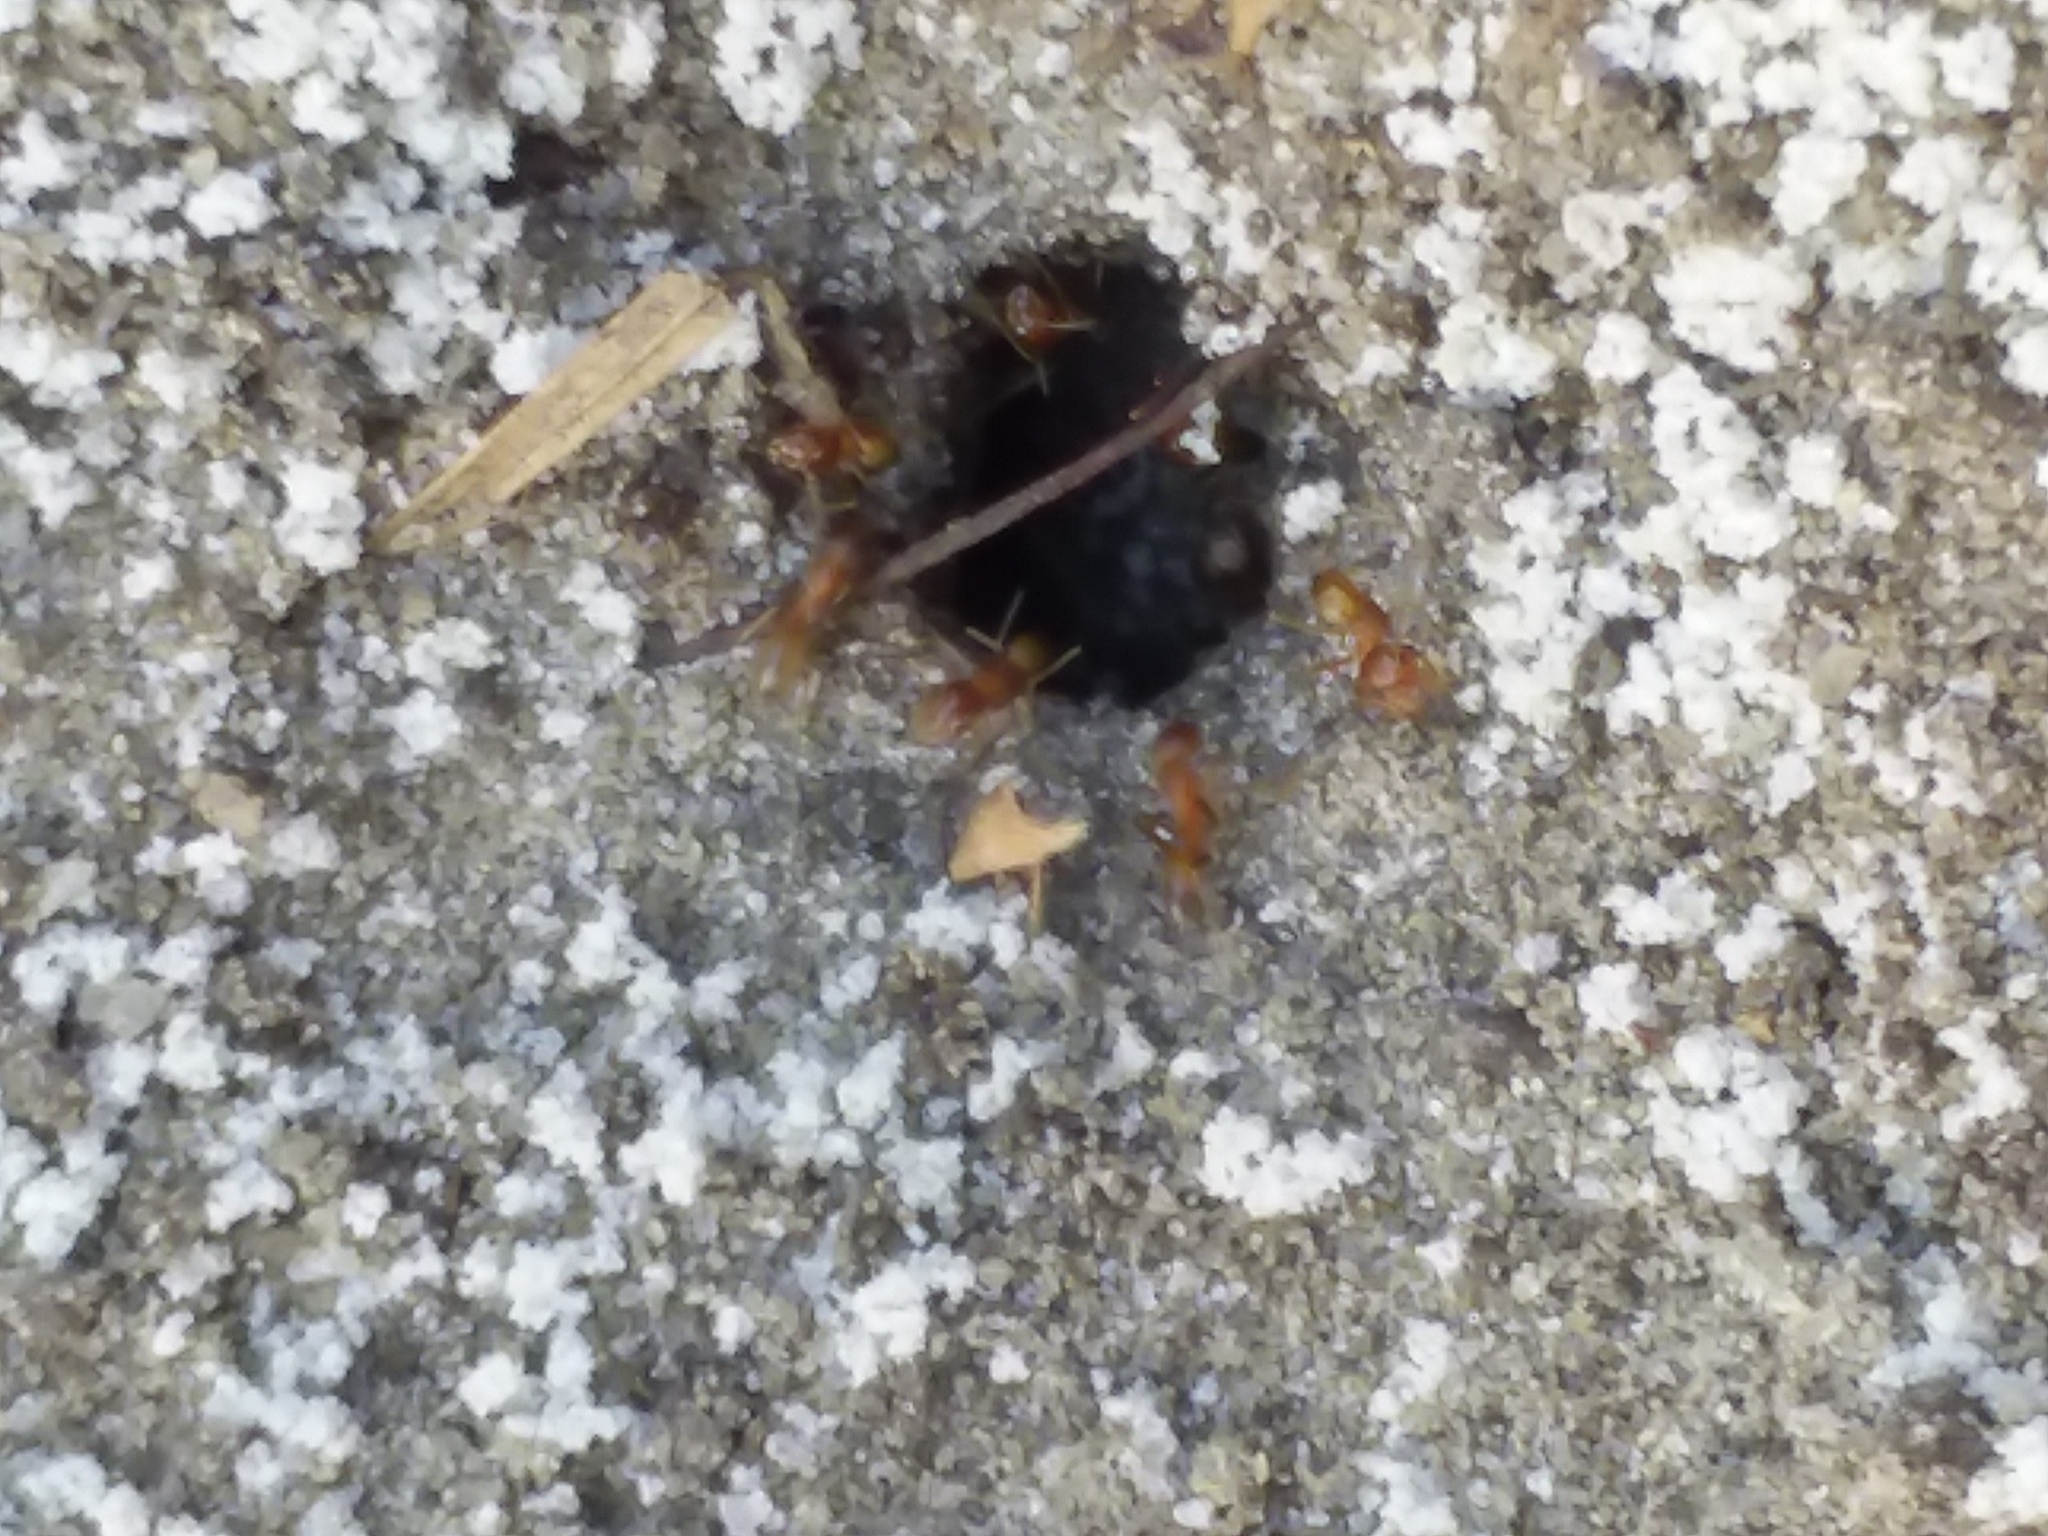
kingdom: Animalia
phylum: Arthropoda
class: Insecta
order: Hymenoptera
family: Formicidae
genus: Dorymyrmex
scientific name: Dorymyrmex bureni
